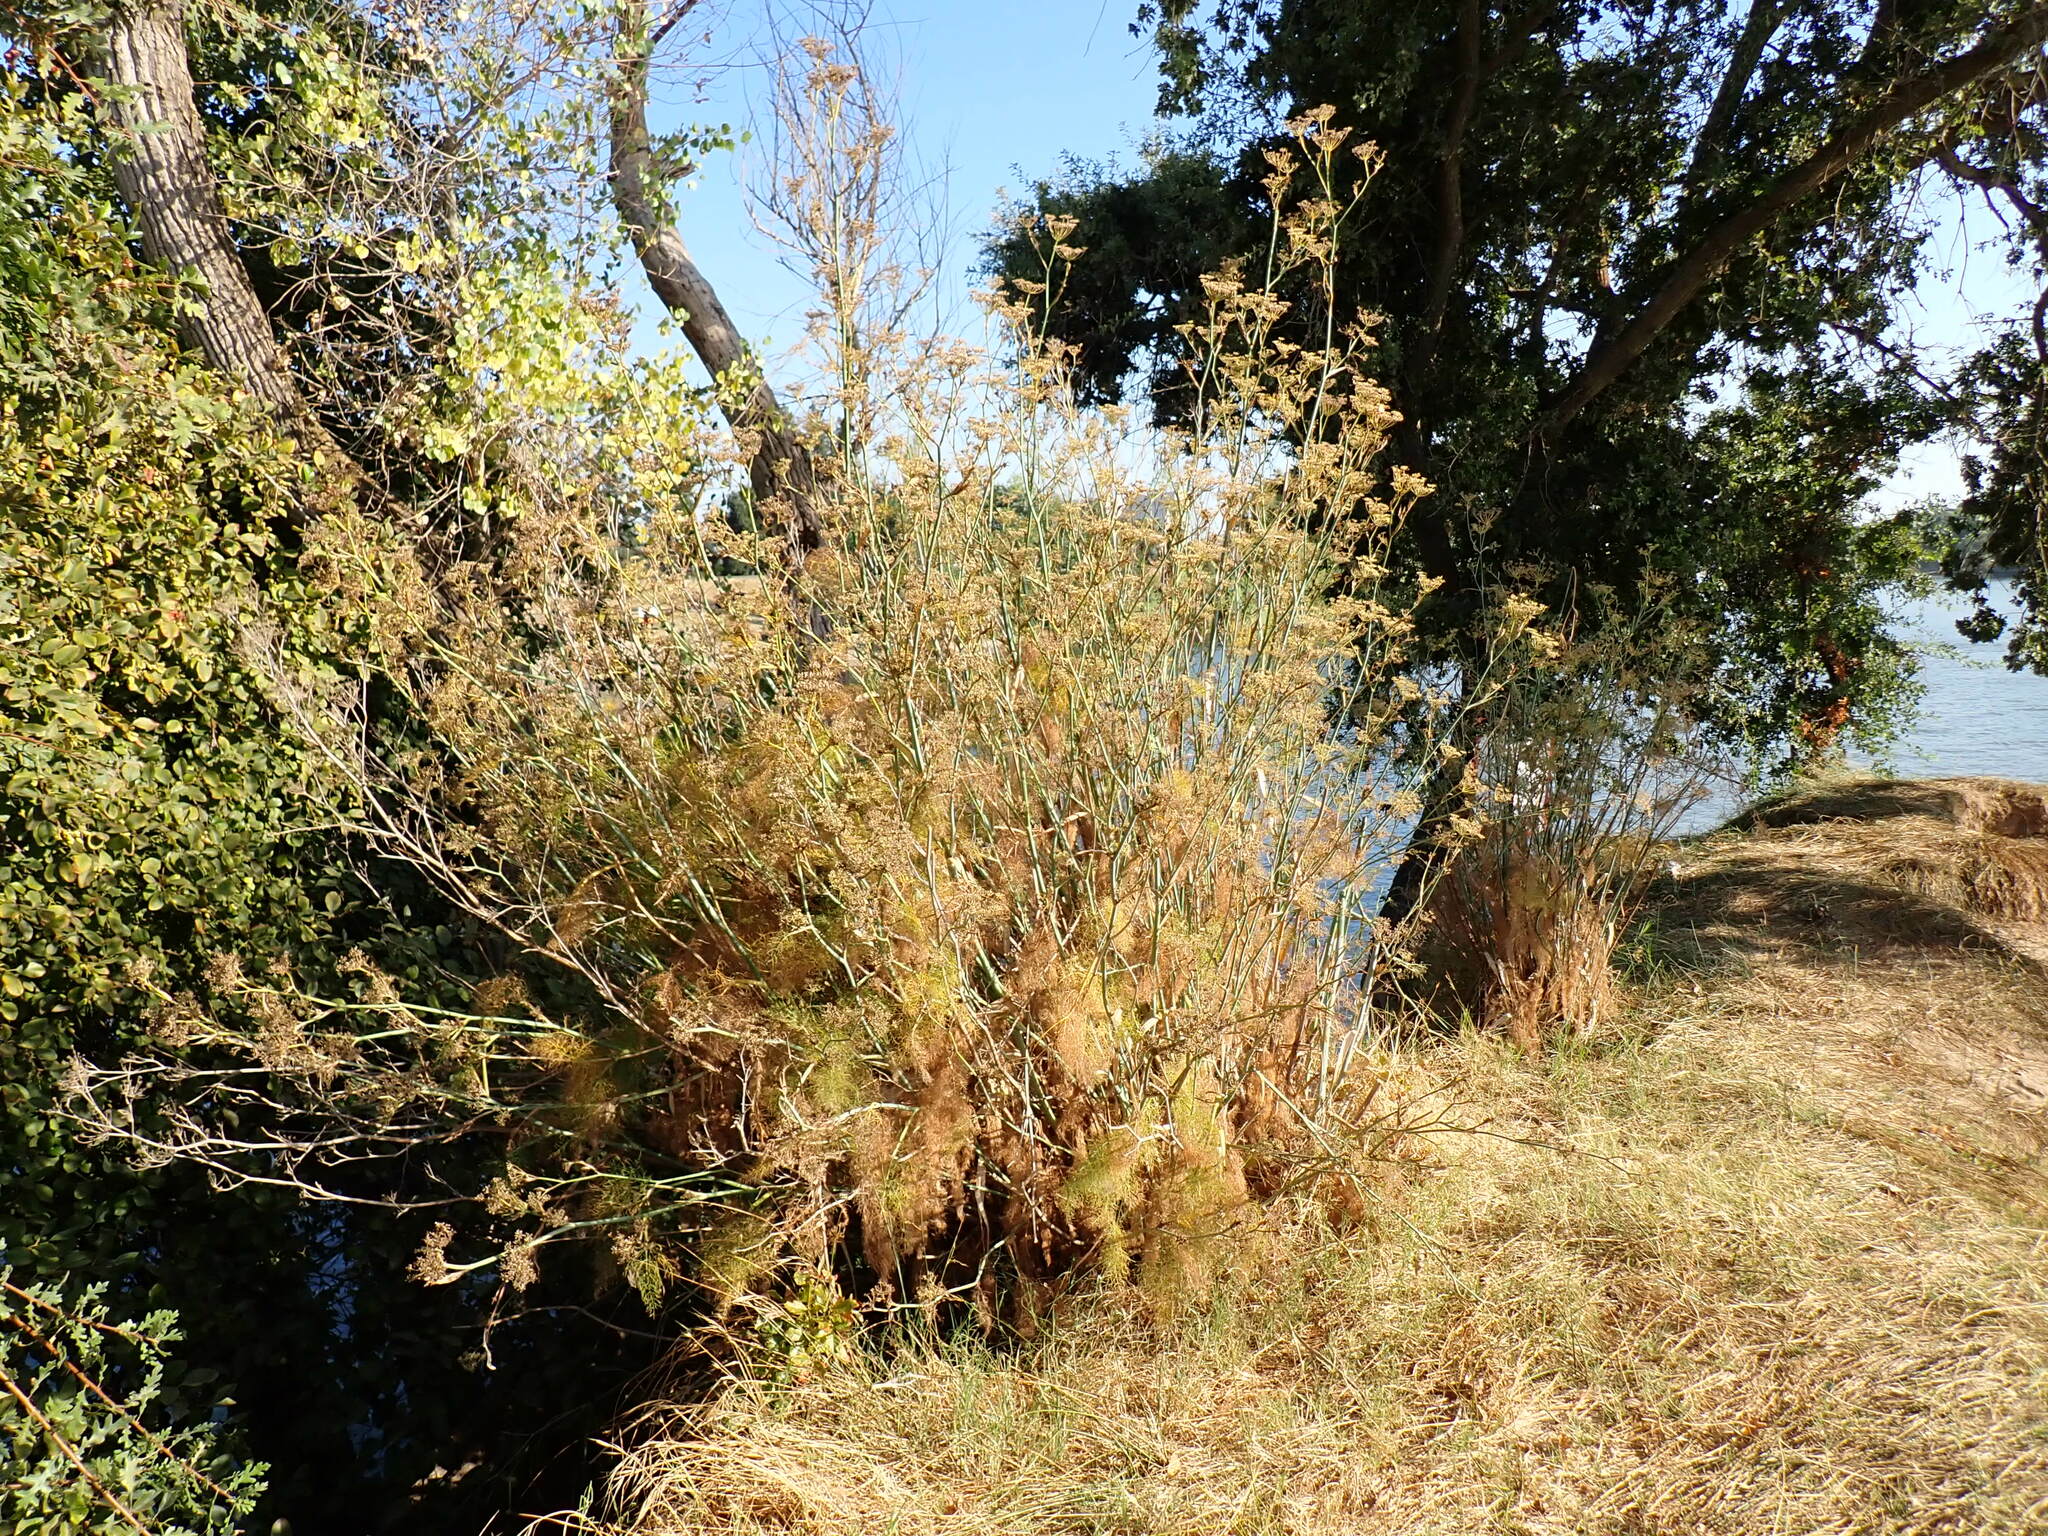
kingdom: Plantae
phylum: Tracheophyta
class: Magnoliopsida
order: Apiales
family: Apiaceae
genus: Foeniculum
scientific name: Foeniculum vulgare
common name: Fennel
